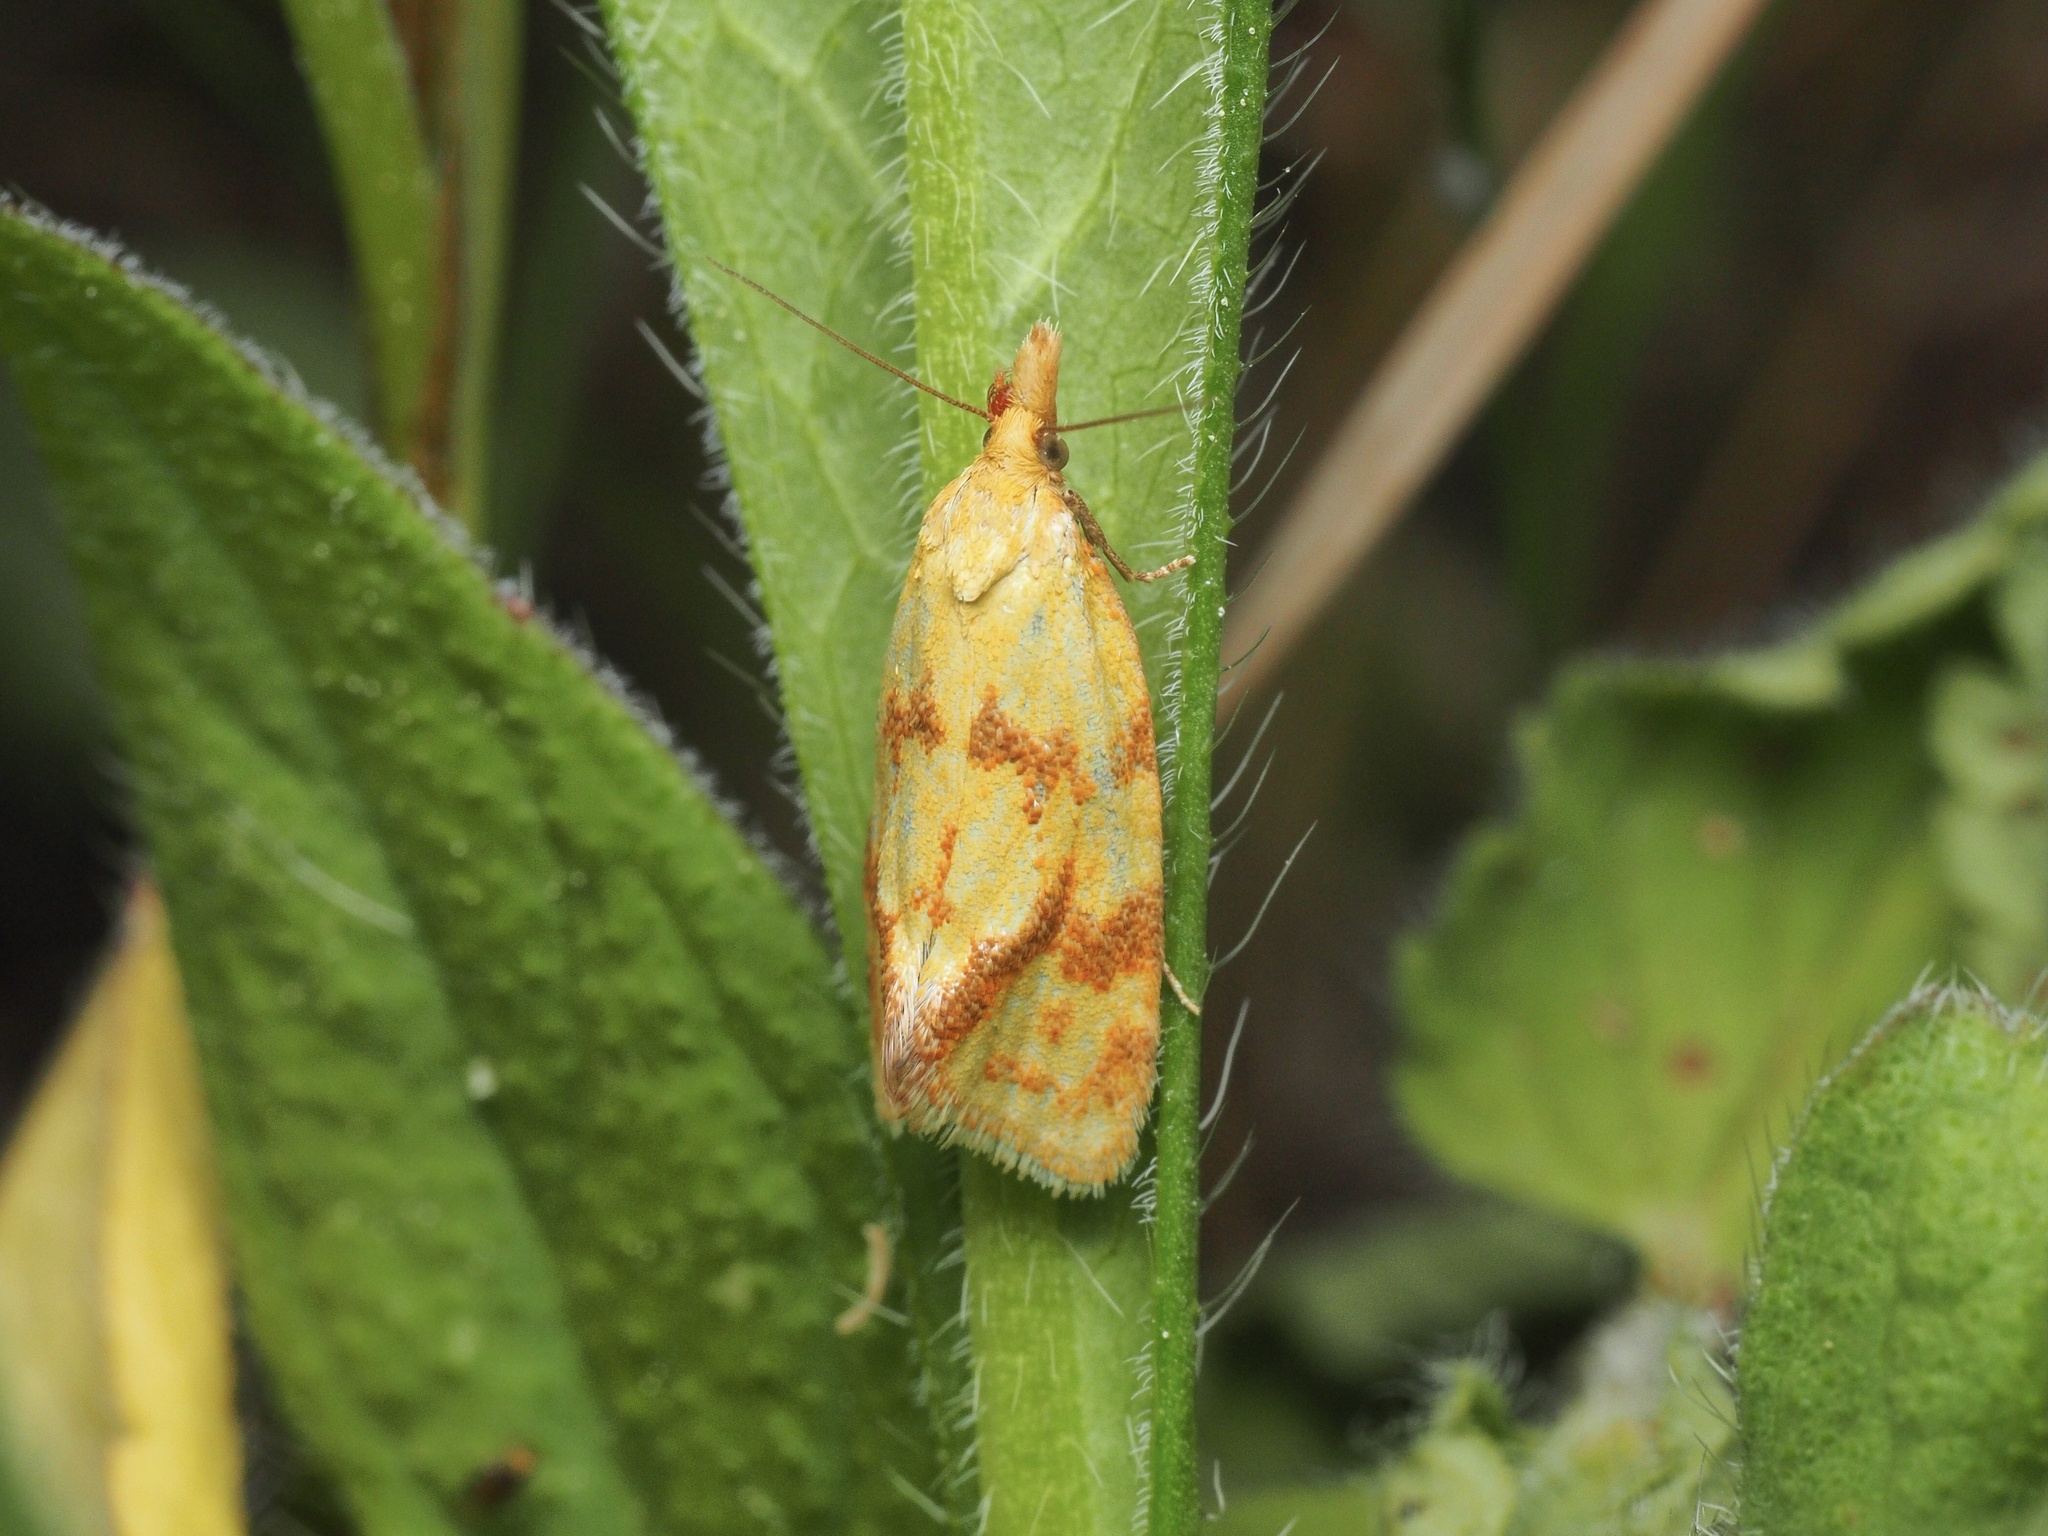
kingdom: Animalia
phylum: Arthropoda
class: Insecta
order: Lepidoptera
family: Tortricidae
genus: Agapeta
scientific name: Agapeta hamana
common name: Common yellow conch
